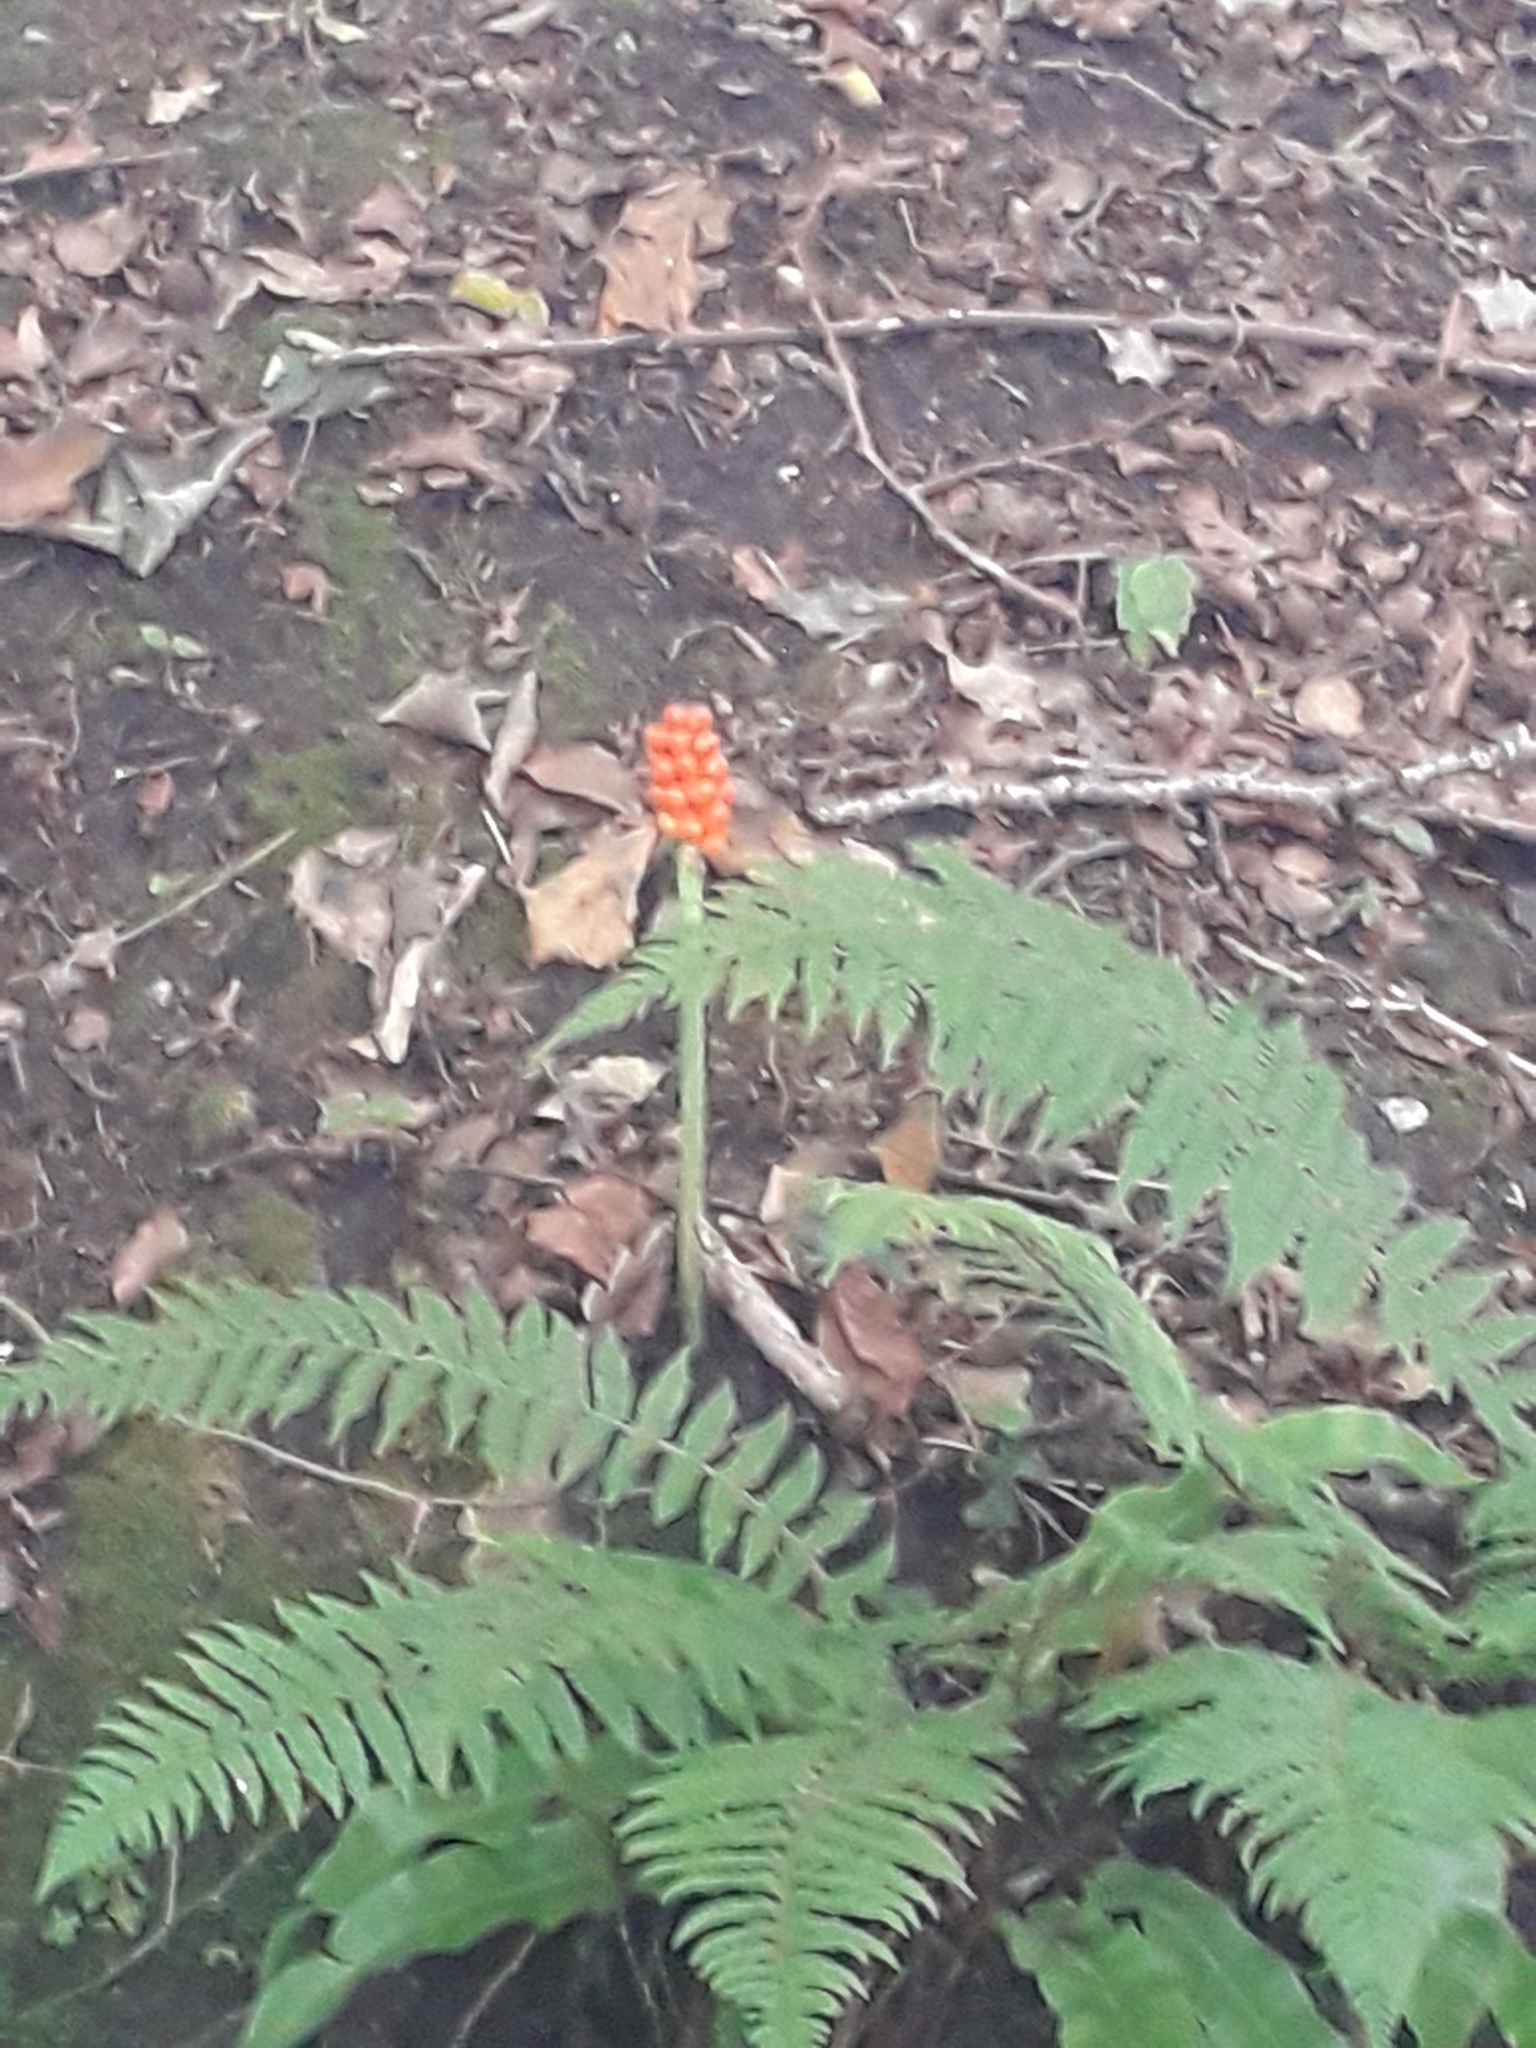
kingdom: Plantae
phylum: Tracheophyta
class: Liliopsida
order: Alismatales
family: Araceae
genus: Arum
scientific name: Arum maculatum
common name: Lords-and-ladies
